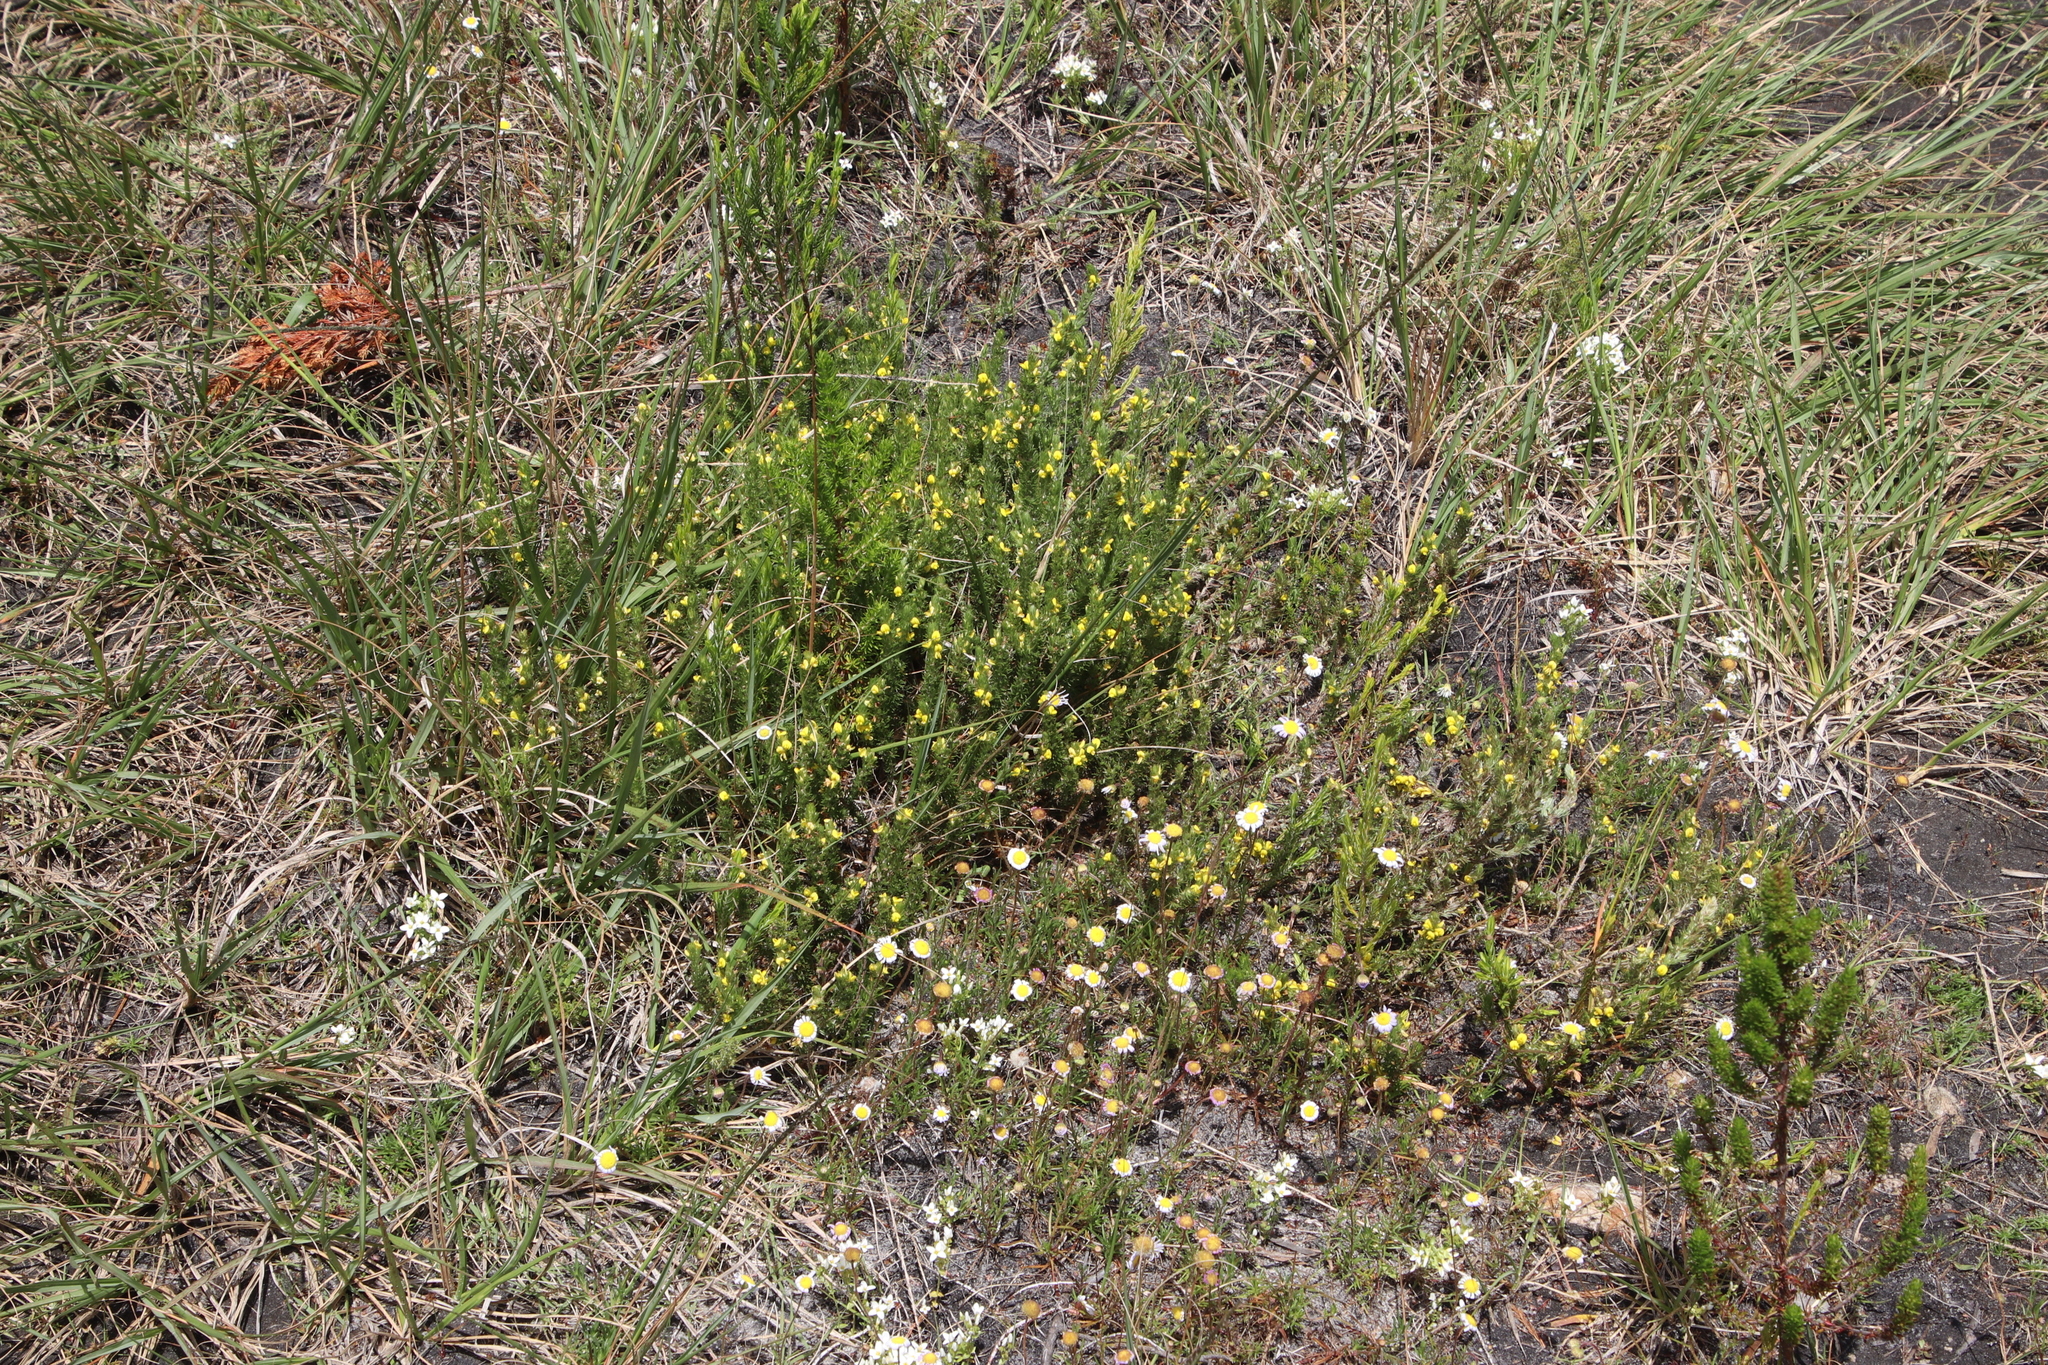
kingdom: Plantae
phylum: Tracheophyta
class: Magnoliopsida
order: Asterales
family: Asteraceae
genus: Cotula
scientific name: Cotula turbinata
